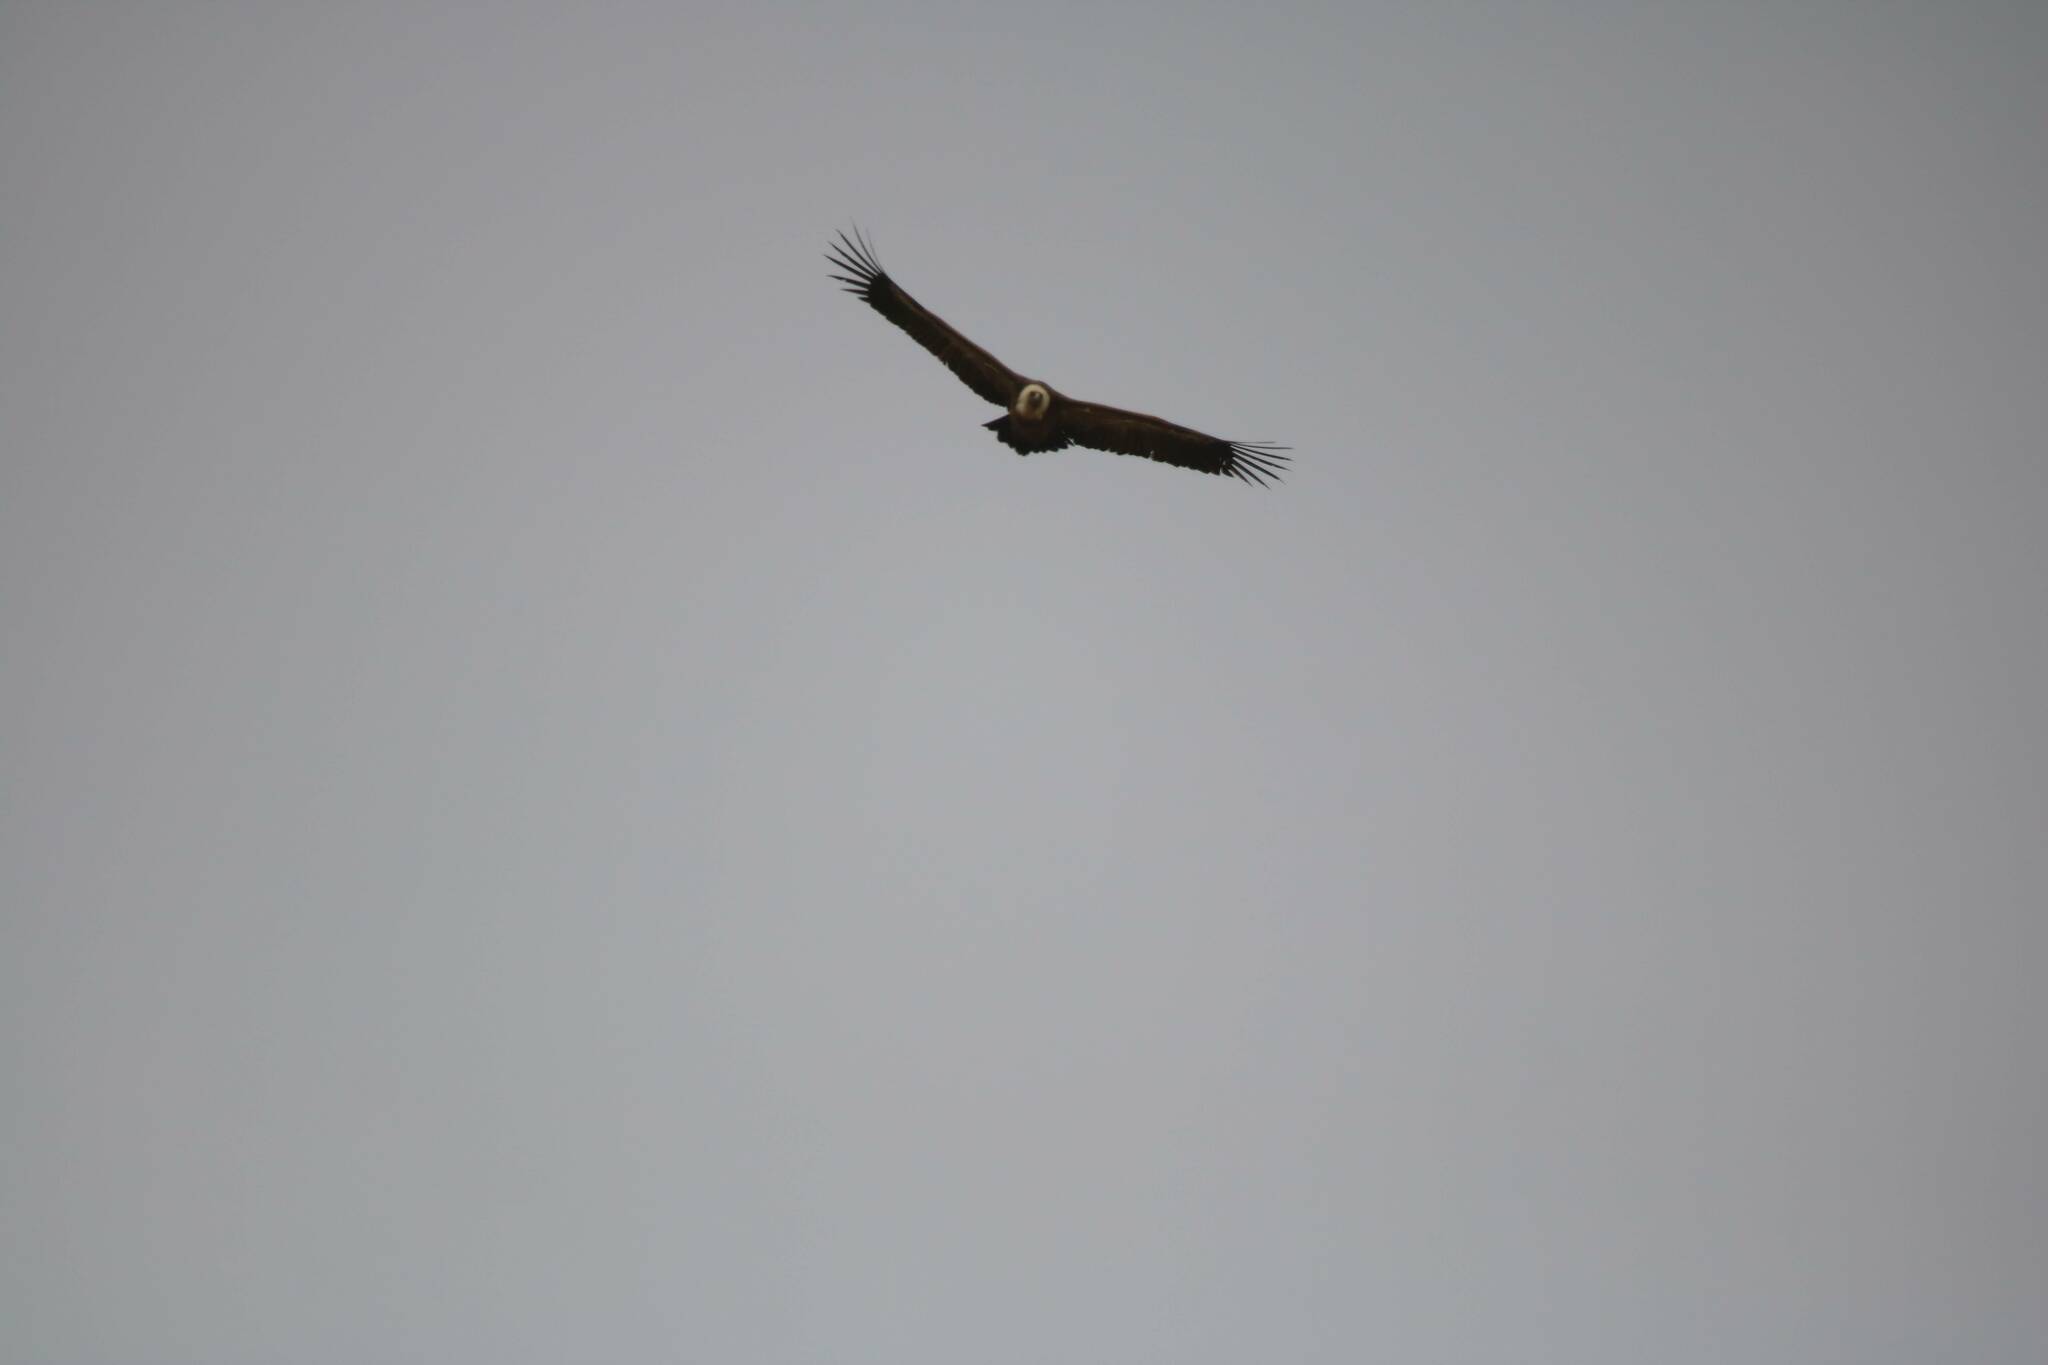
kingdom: Animalia
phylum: Chordata
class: Aves
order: Accipitriformes
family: Accipitridae
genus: Gyps
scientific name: Gyps fulvus
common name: Griffon vulture
